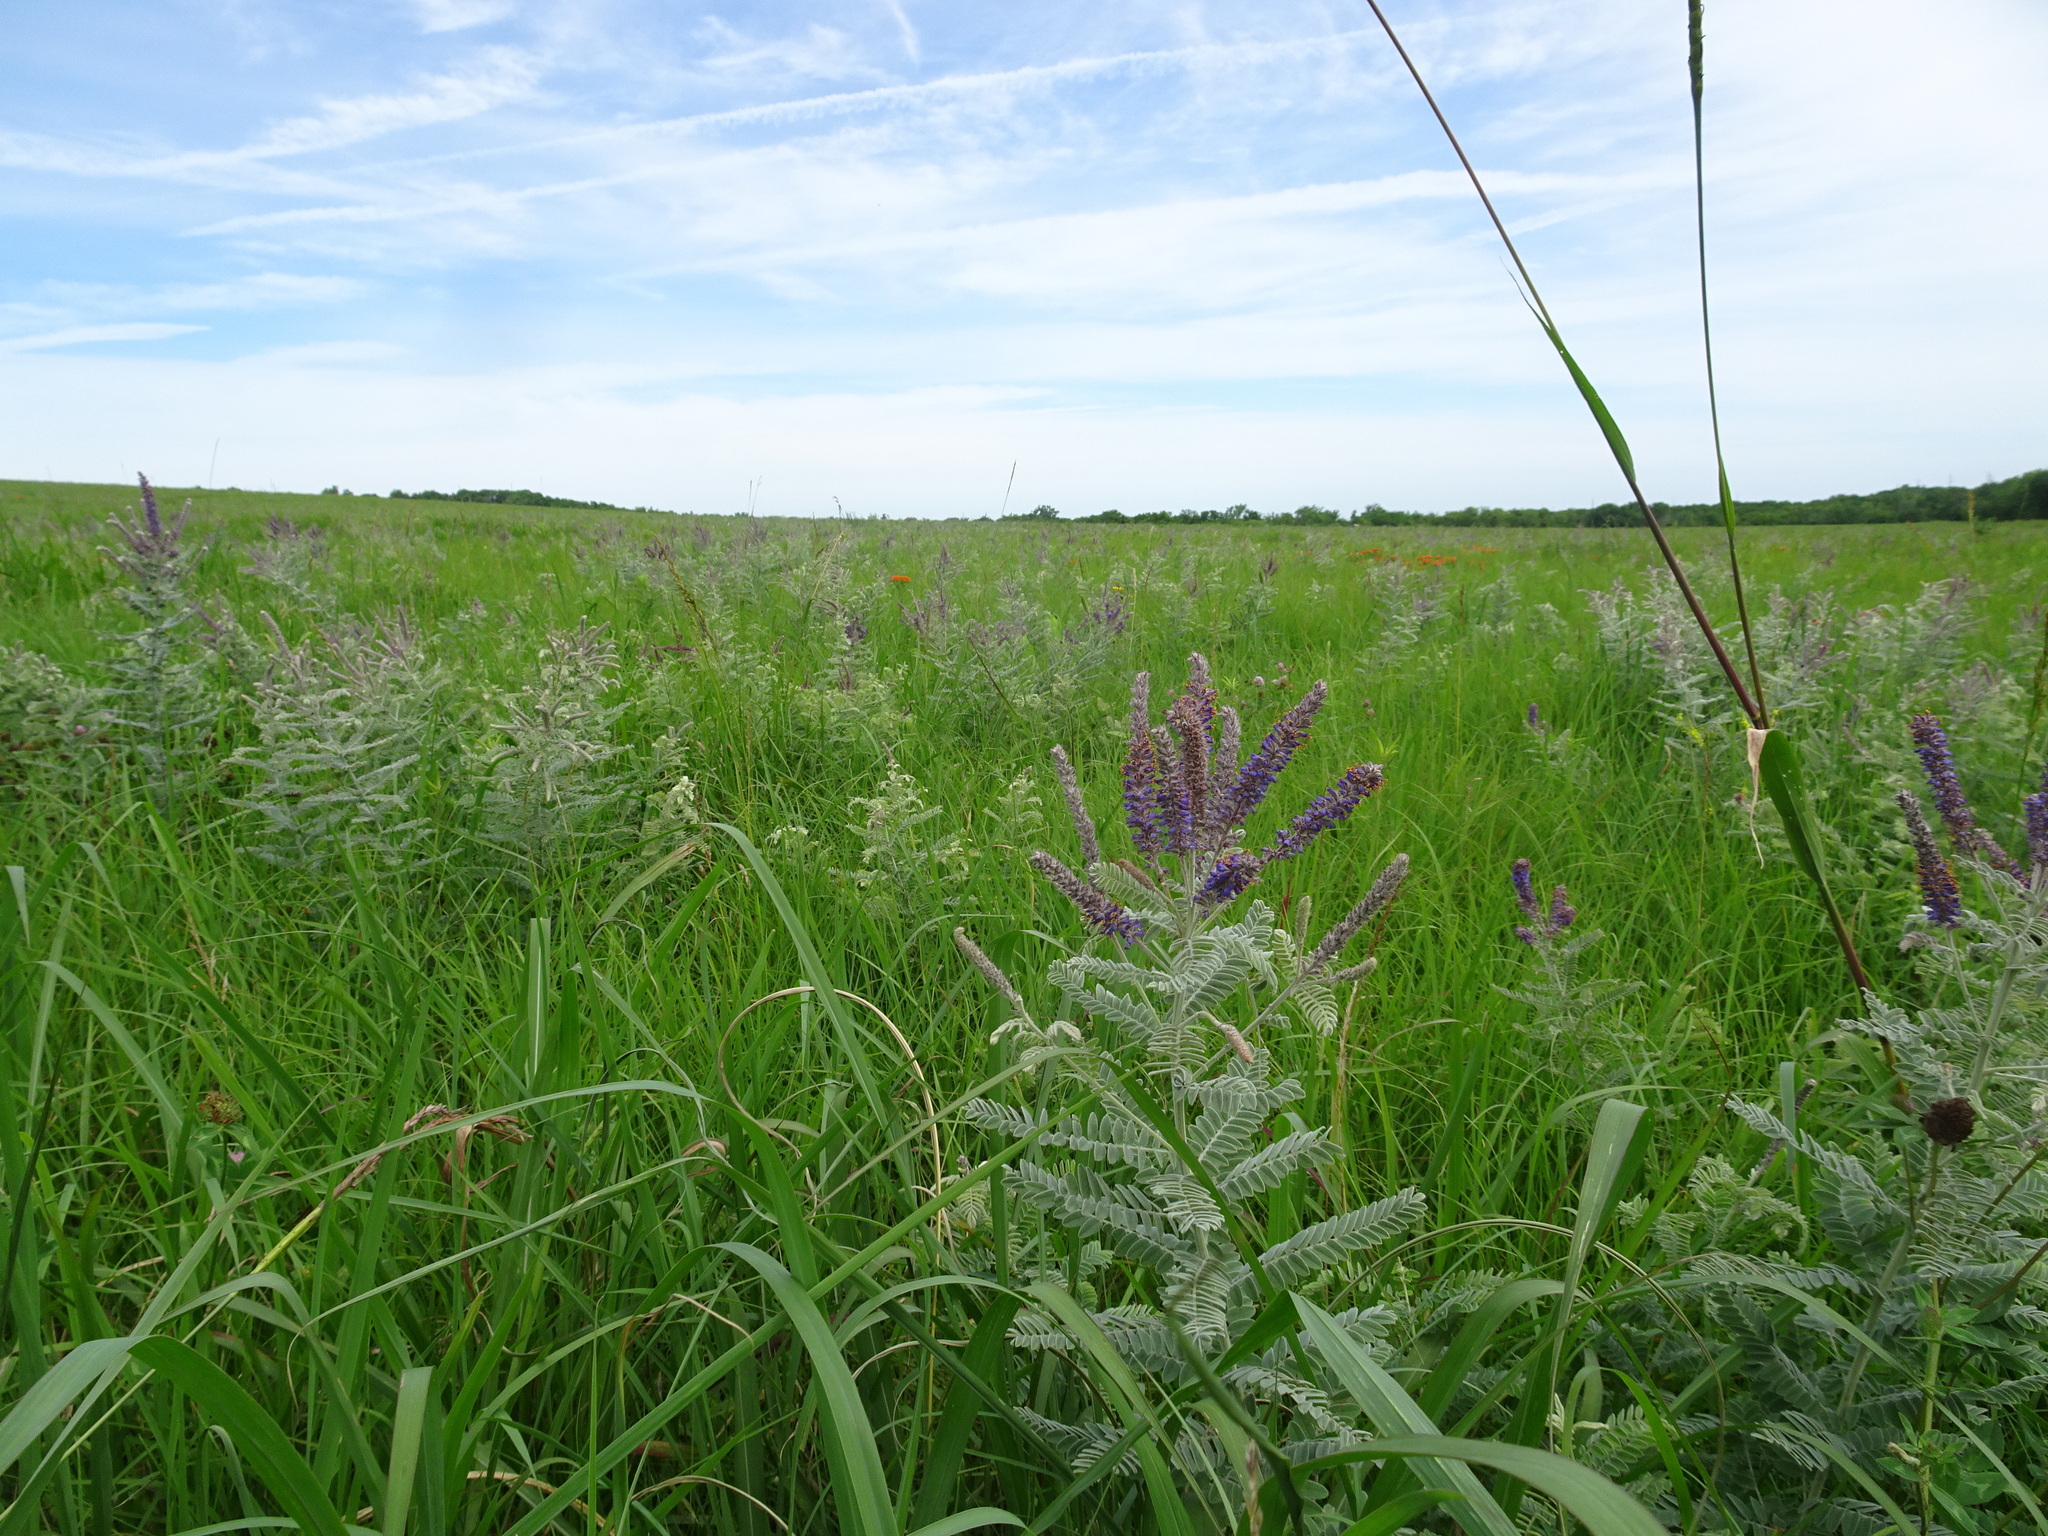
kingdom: Plantae
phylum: Tracheophyta
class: Magnoliopsida
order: Fabales
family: Fabaceae
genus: Amorpha
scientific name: Amorpha canescens
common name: Leadplant
